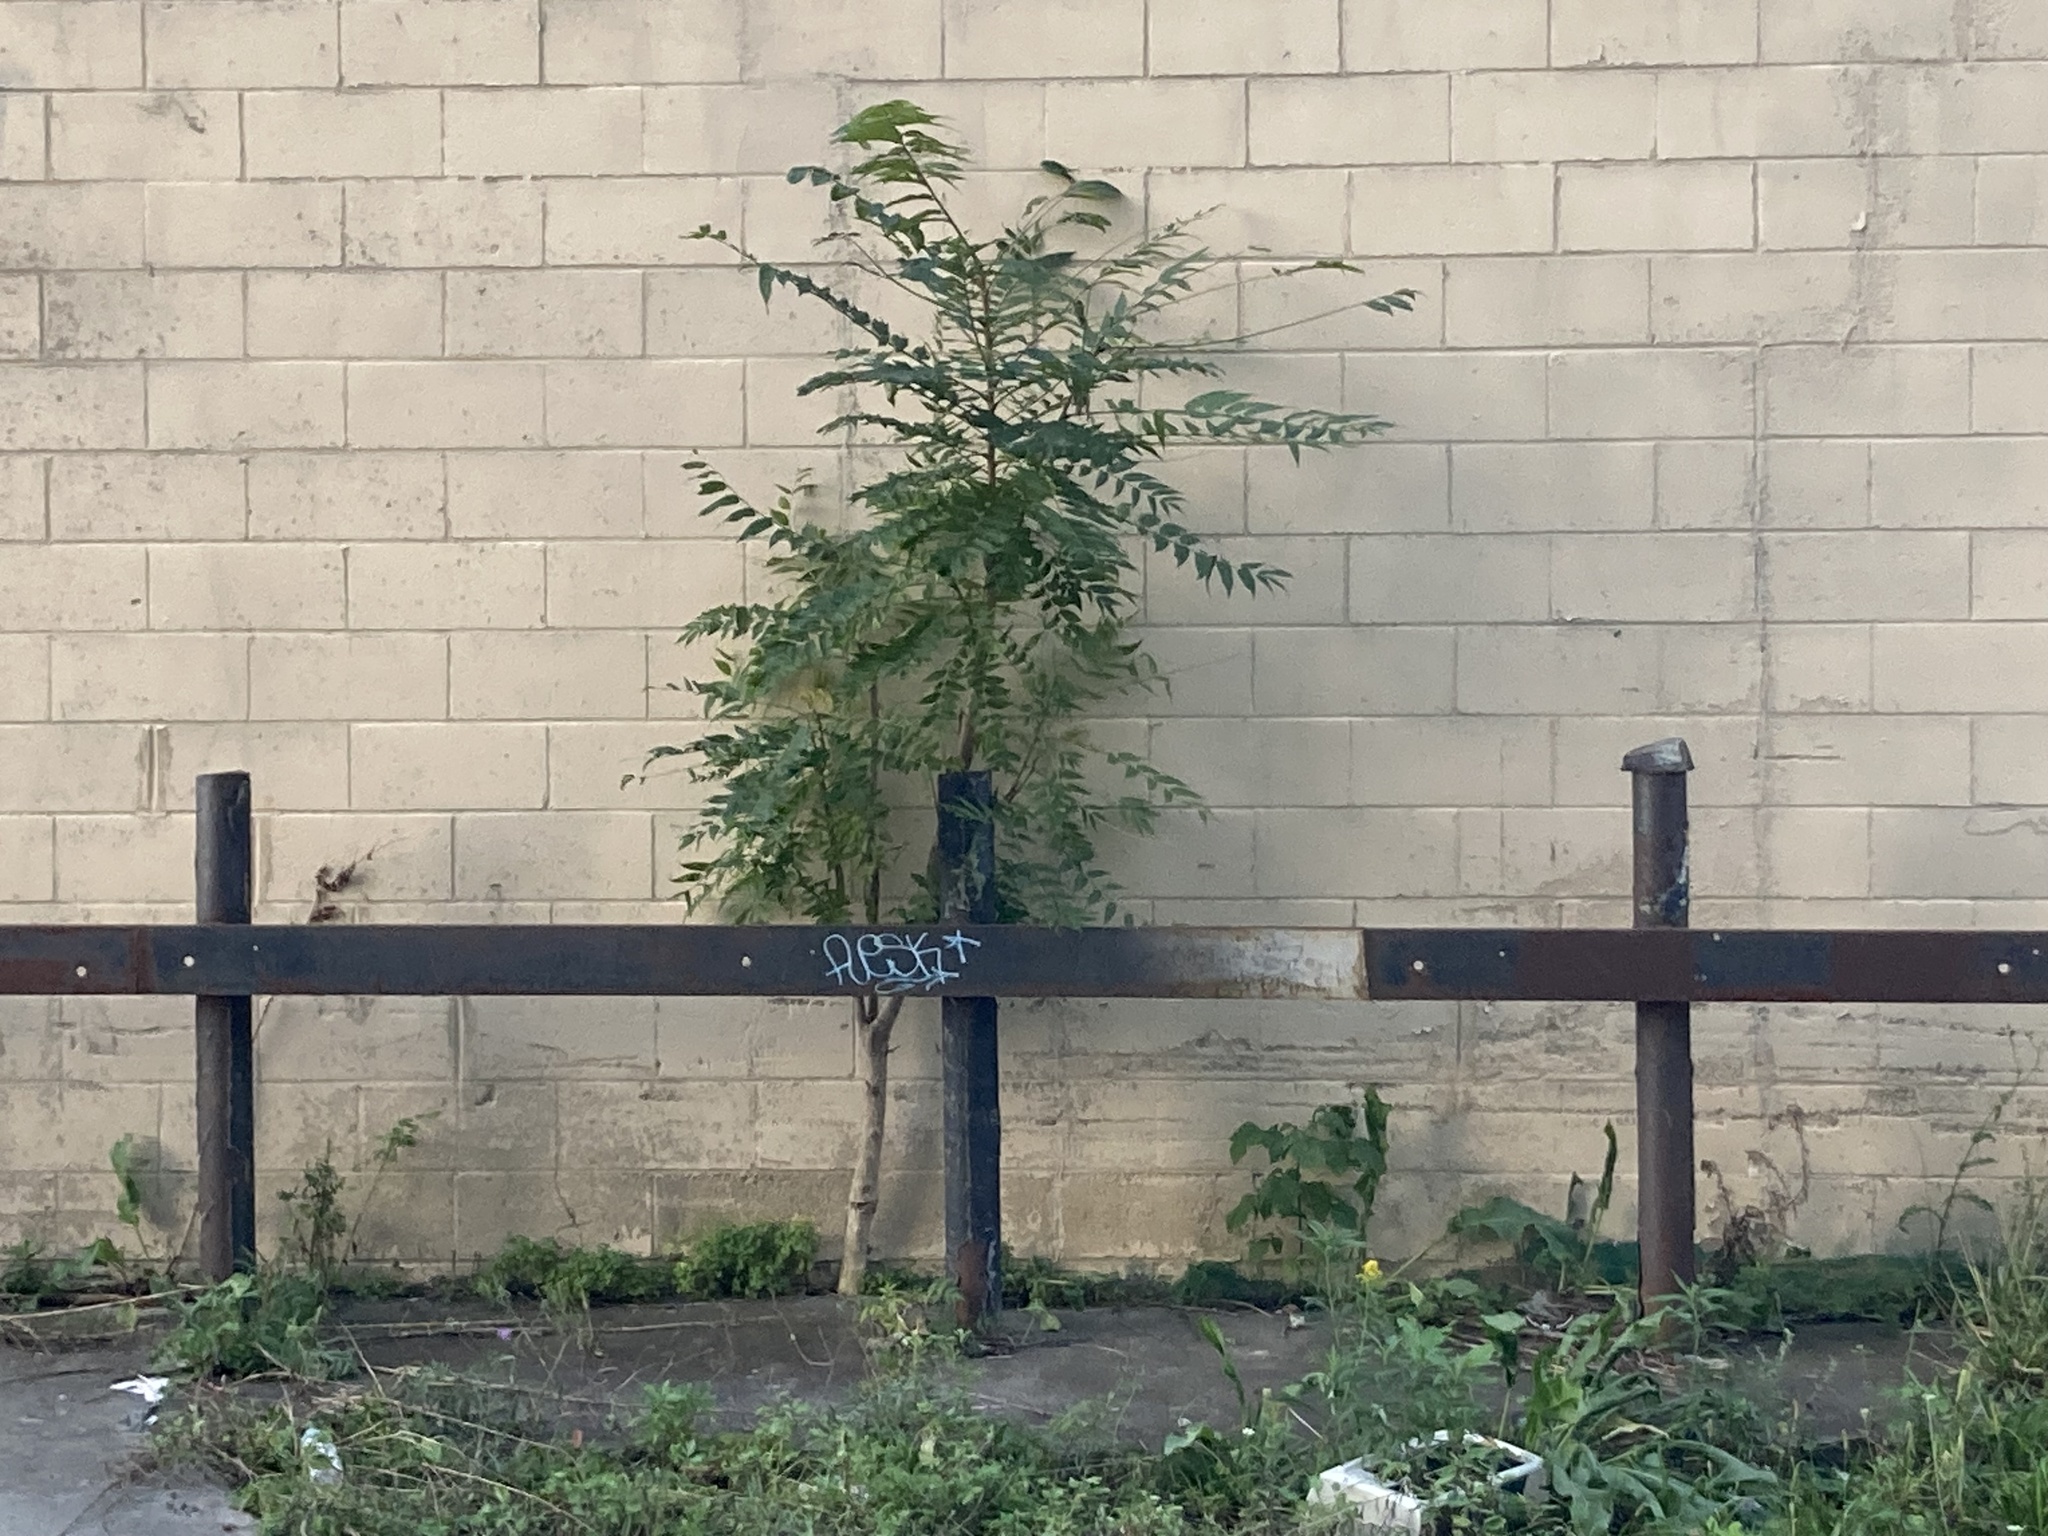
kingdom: Plantae
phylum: Tracheophyta
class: Magnoliopsida
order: Sapindales
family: Simaroubaceae
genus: Ailanthus
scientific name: Ailanthus altissima
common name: Tree-of-heaven
